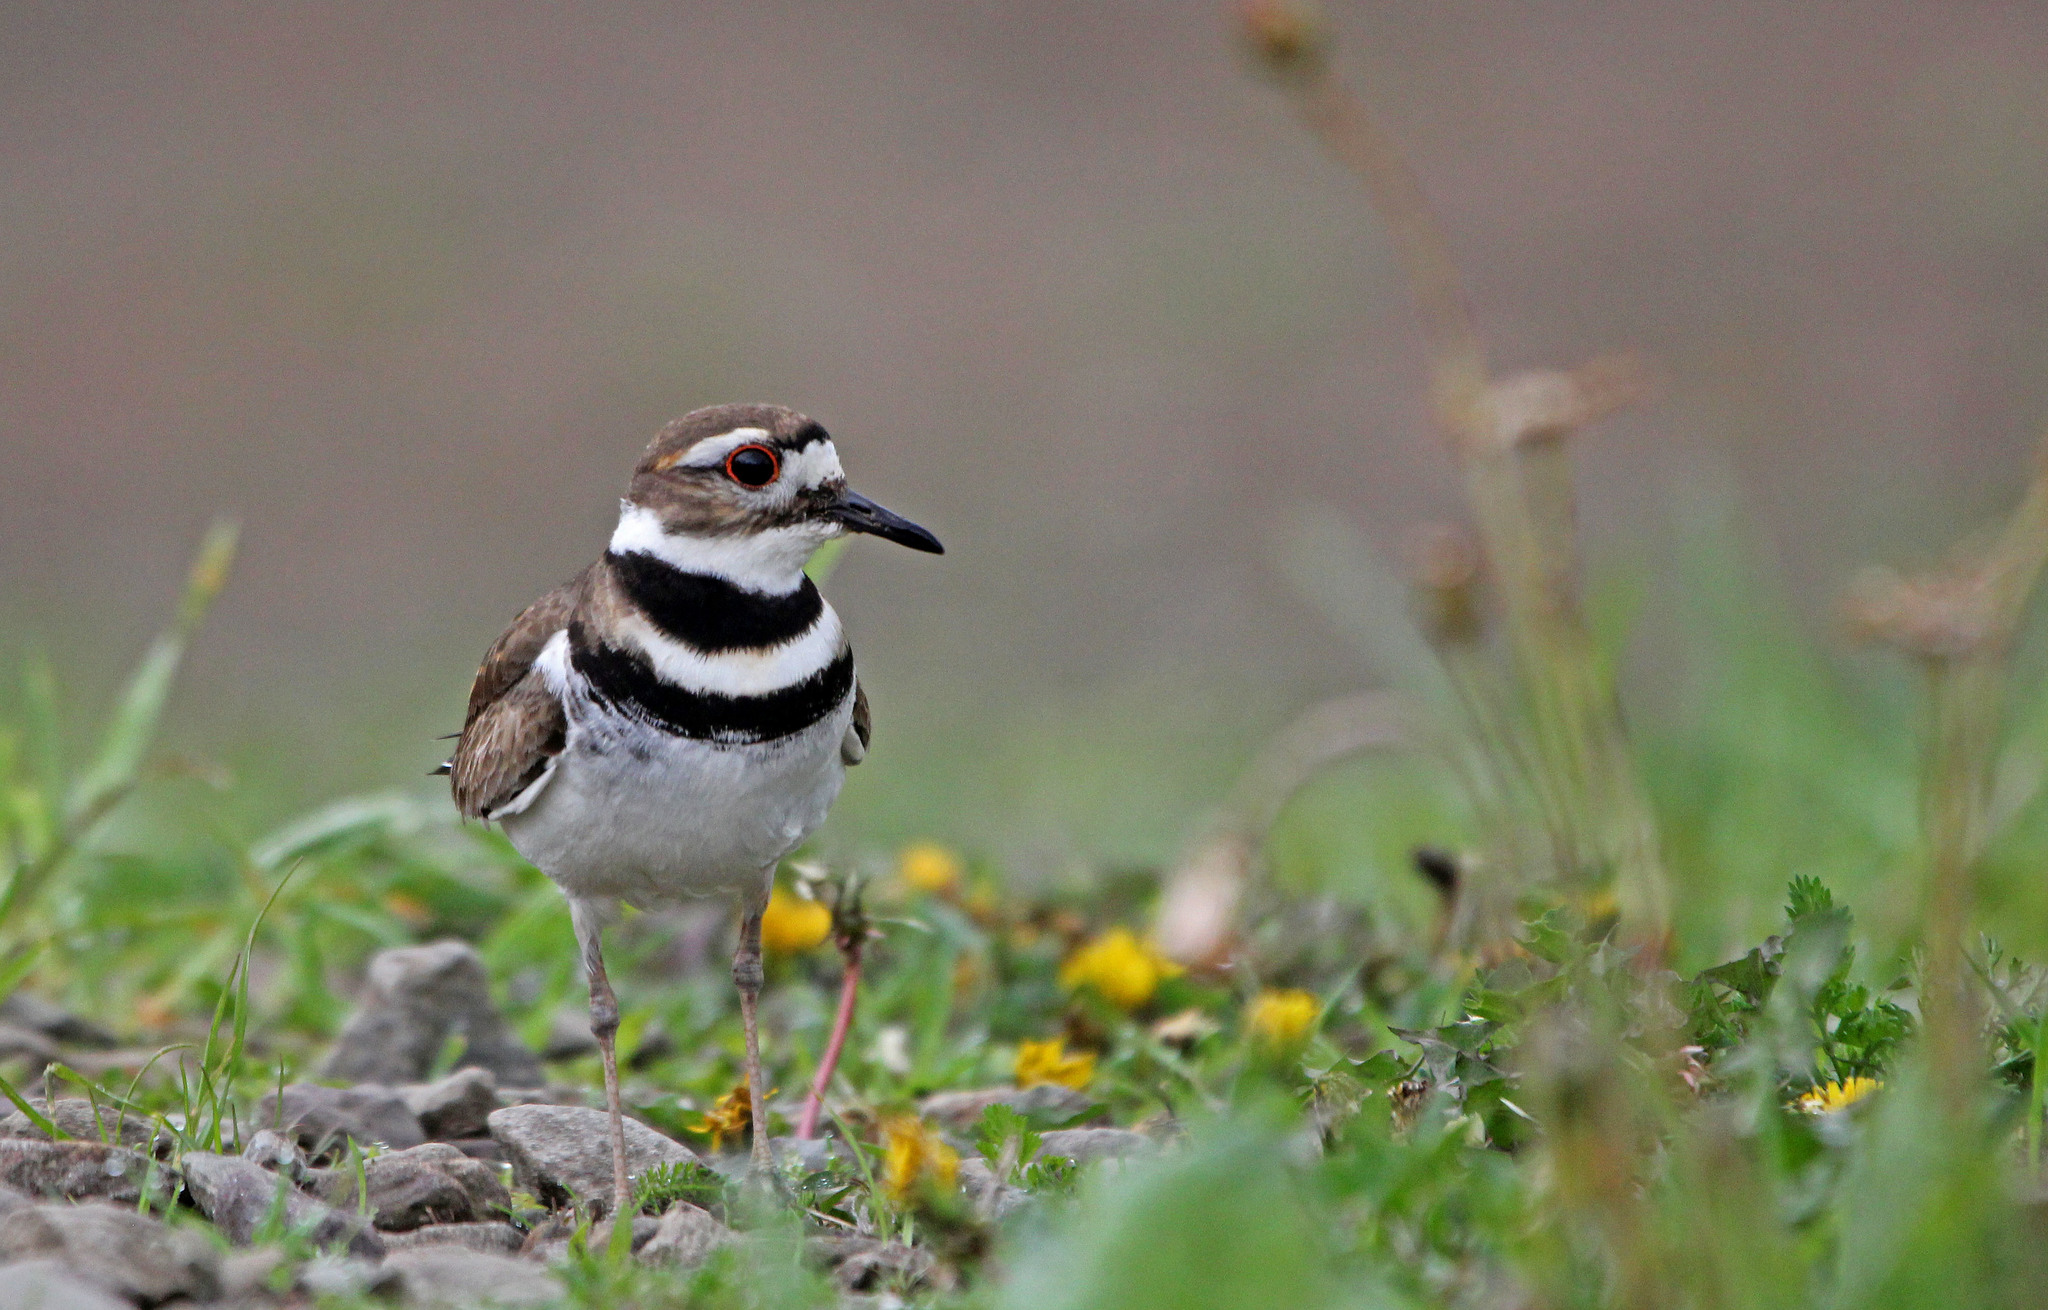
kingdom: Animalia
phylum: Chordata
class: Aves
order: Charadriiformes
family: Charadriidae
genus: Charadrius
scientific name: Charadrius vociferus
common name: Killdeer
